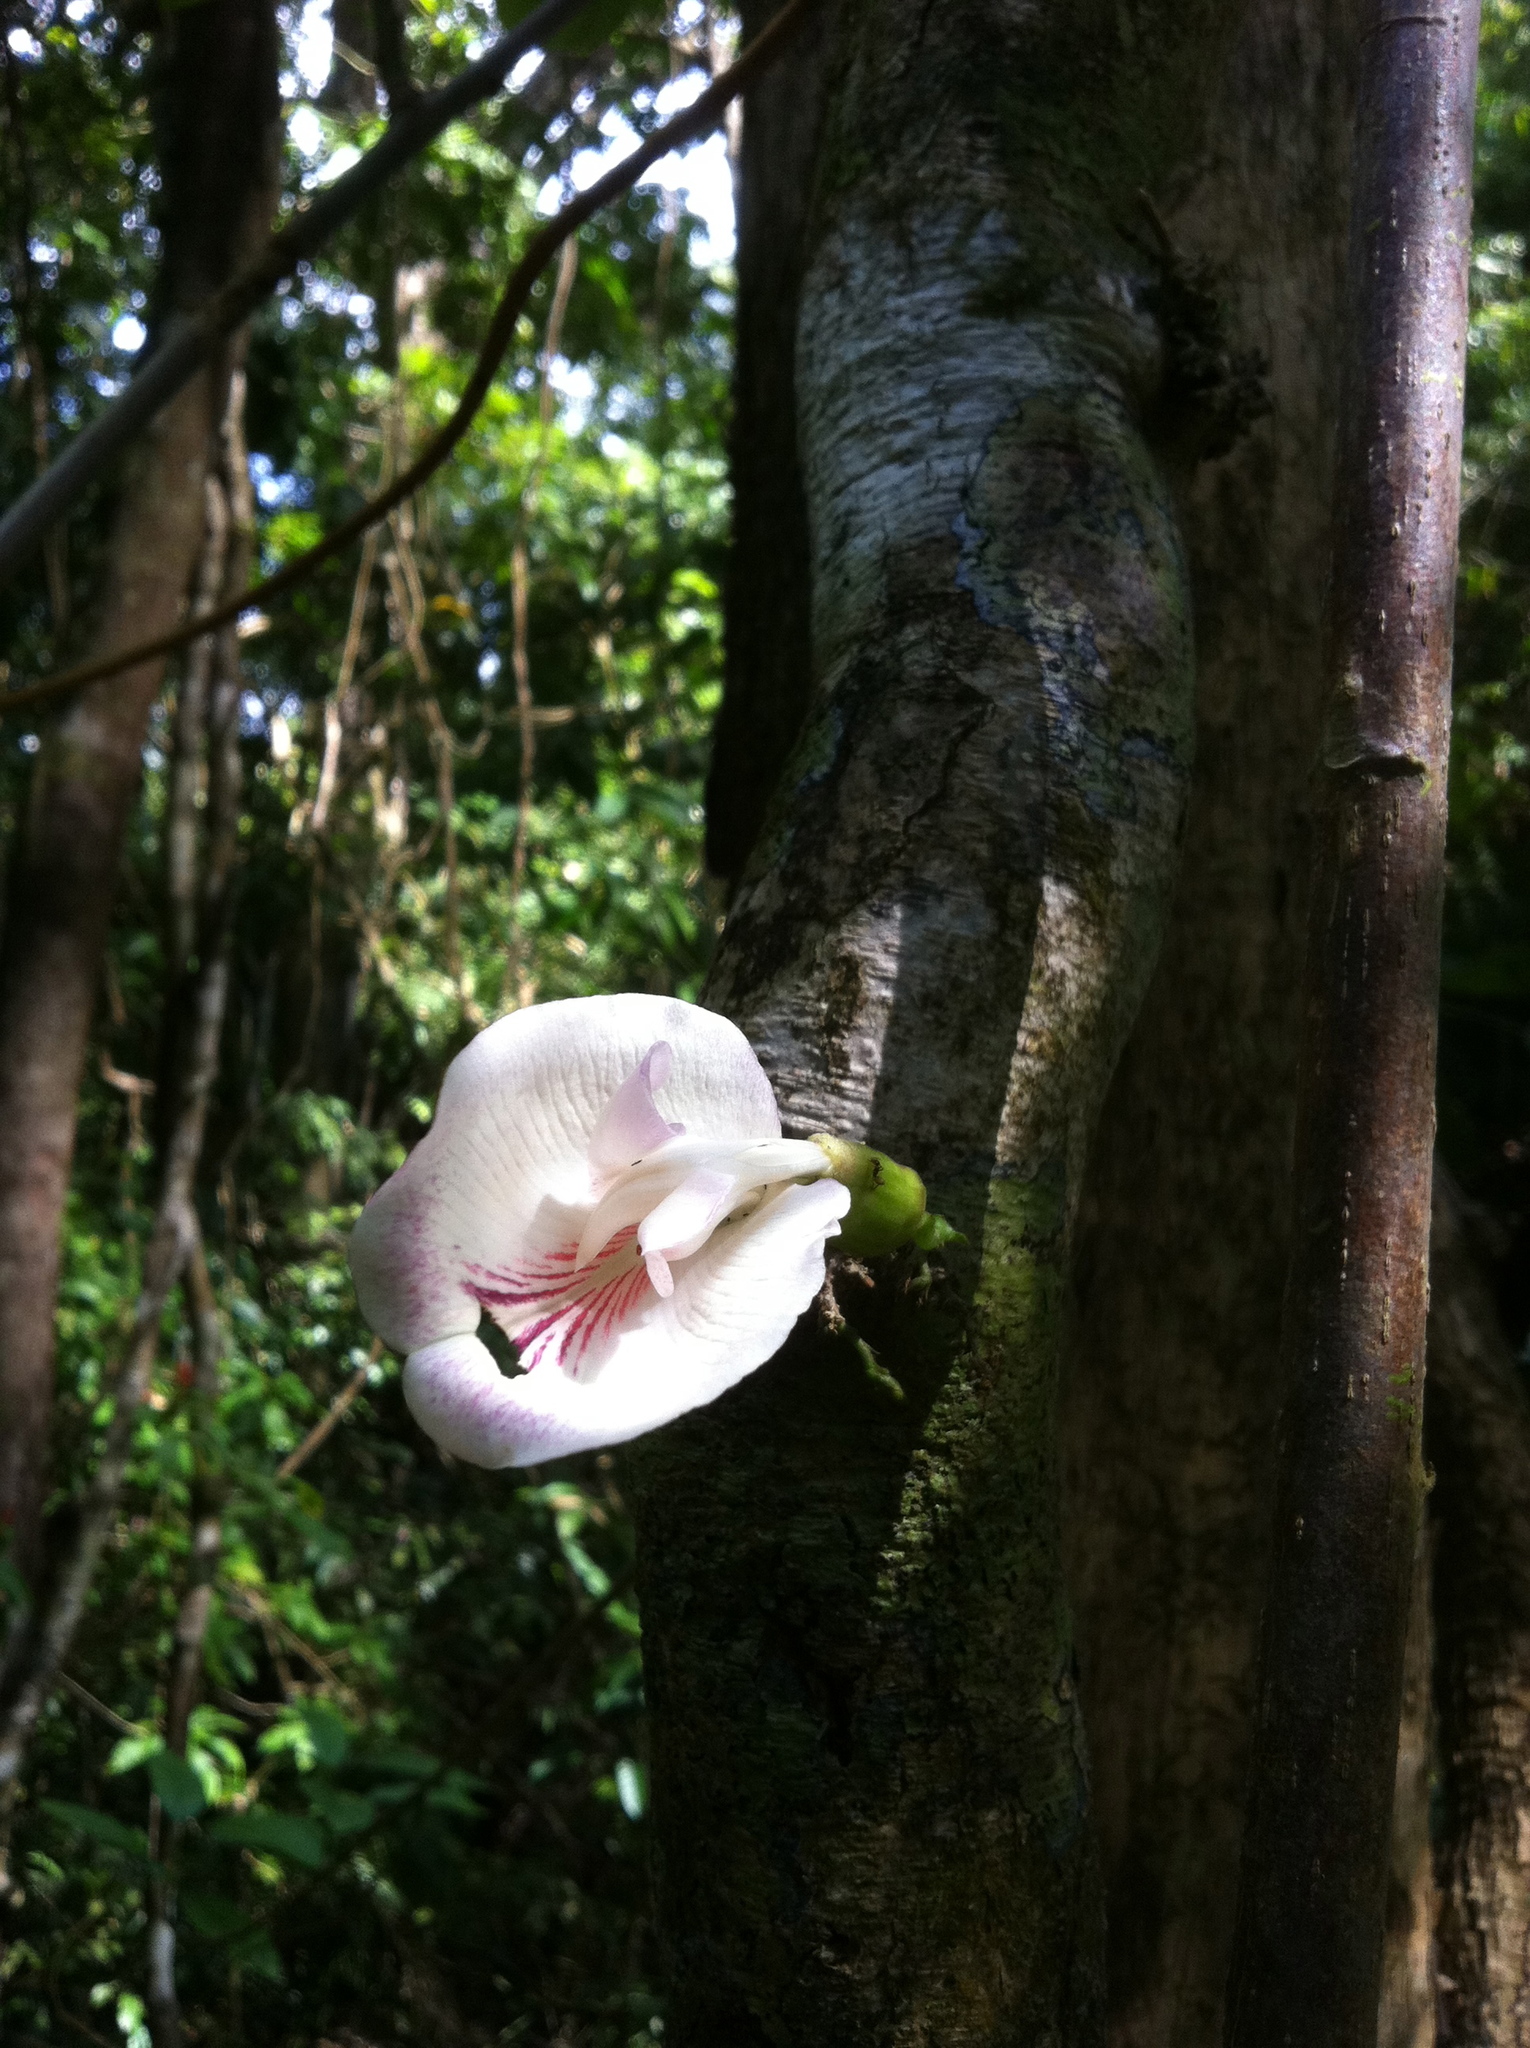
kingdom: Plantae
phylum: Tracheophyta
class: Magnoliopsida
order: Fabales
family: Fabaceae
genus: Clitoria
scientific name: Clitoria javitensis
